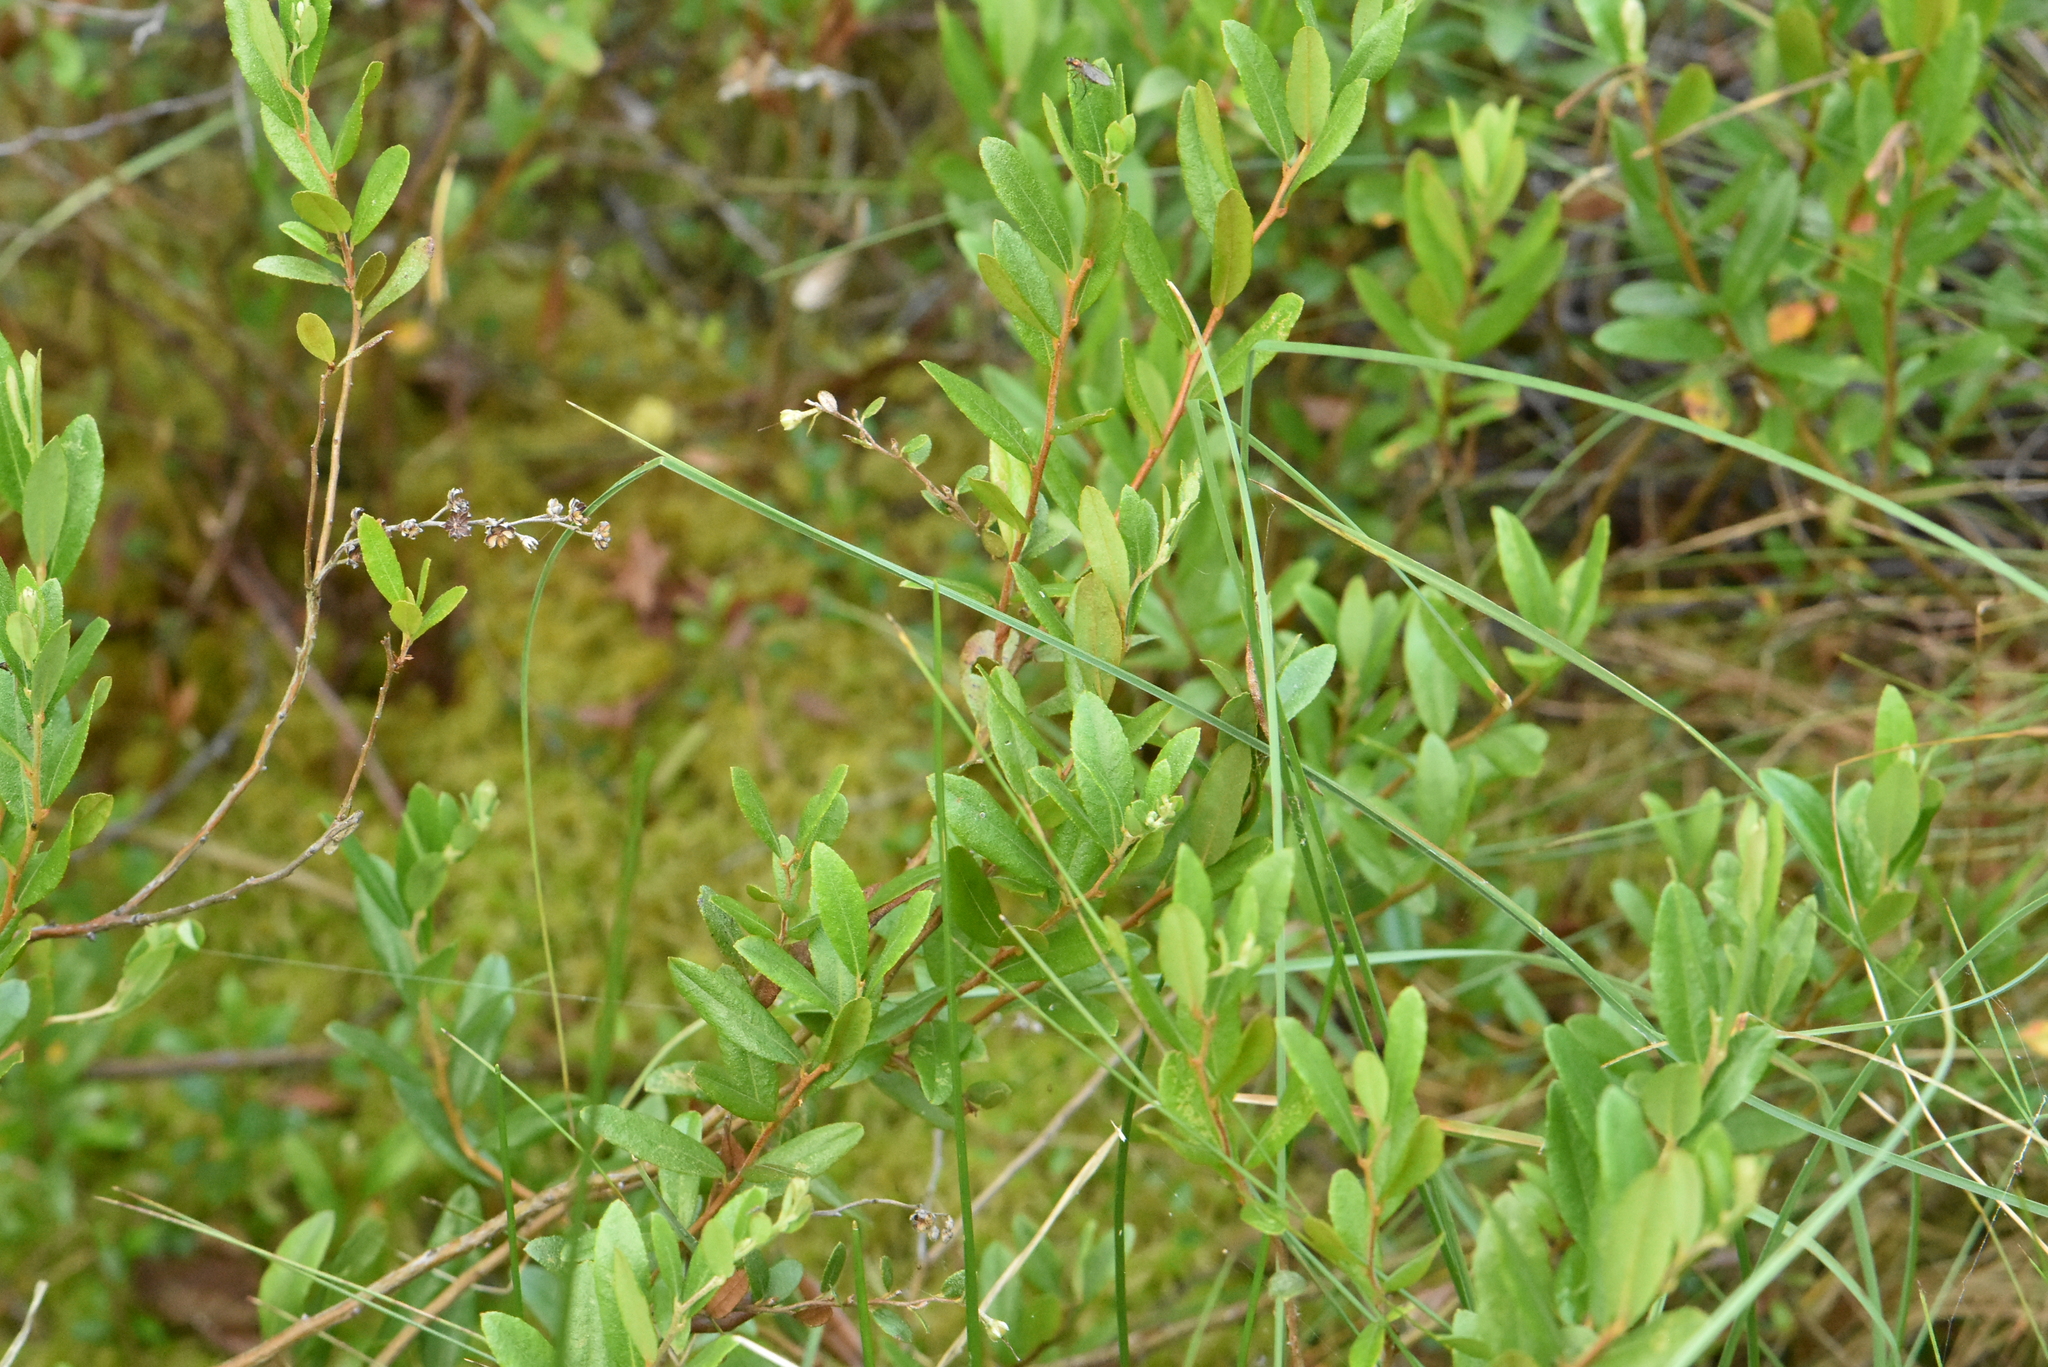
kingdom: Plantae
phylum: Tracheophyta
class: Magnoliopsida
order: Ericales
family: Ericaceae
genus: Chamaedaphne
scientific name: Chamaedaphne calyculata
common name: Leatherleaf
